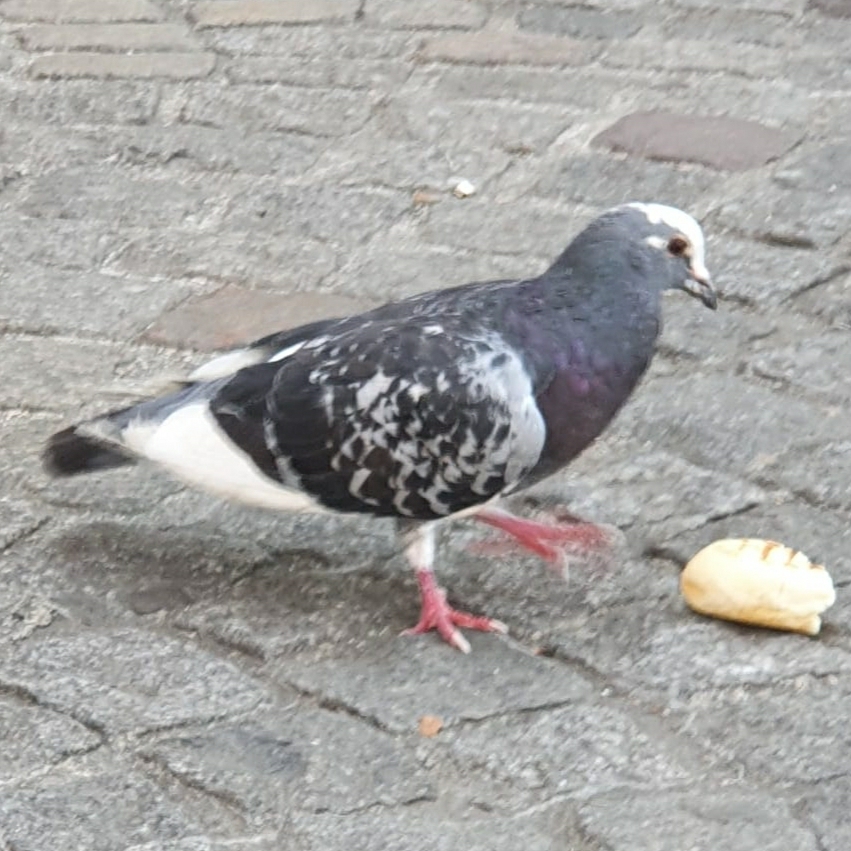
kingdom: Animalia
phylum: Chordata
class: Aves
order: Columbiformes
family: Columbidae
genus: Columba
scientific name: Columba livia
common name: Rock pigeon
